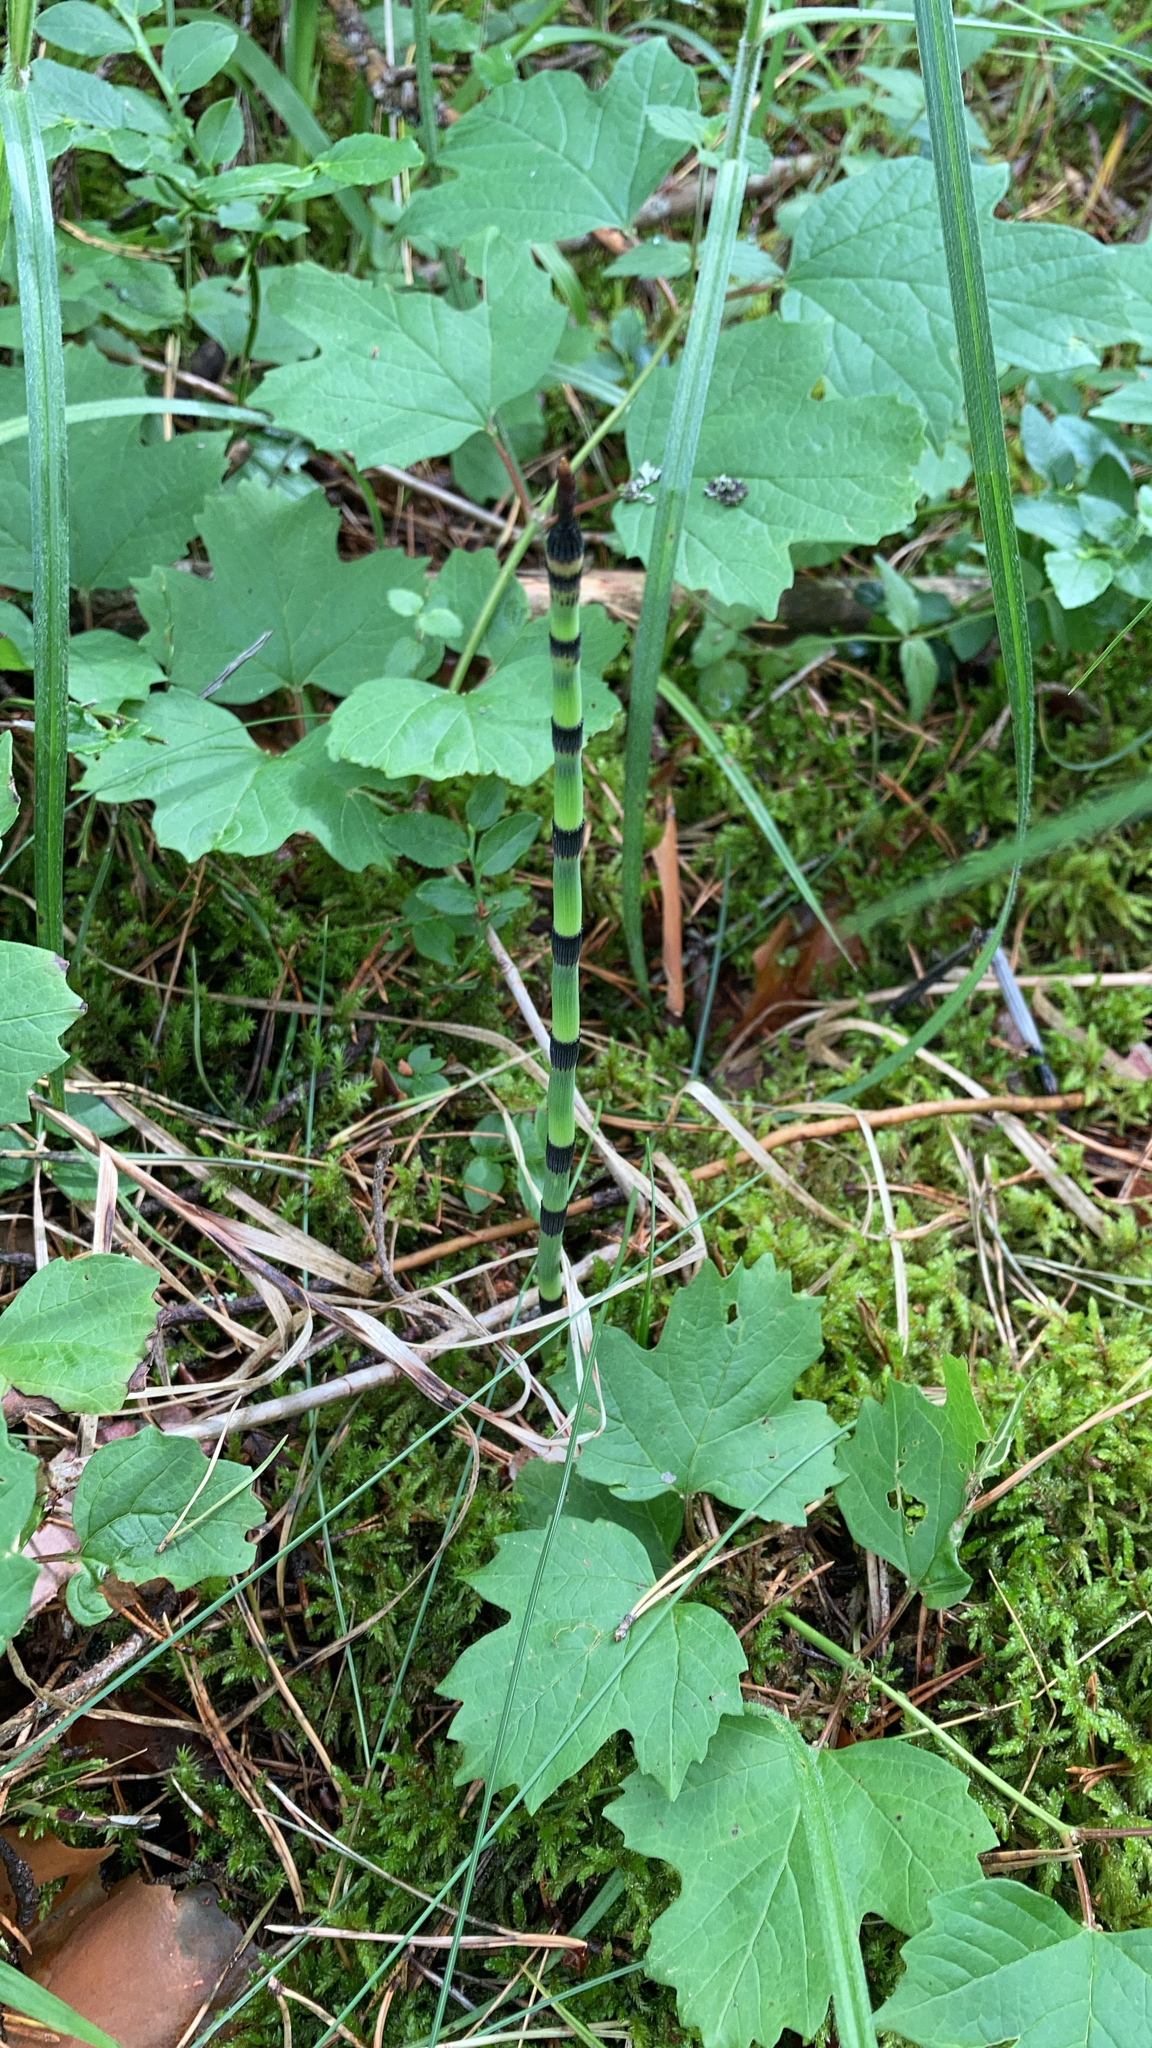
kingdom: Plantae
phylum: Tracheophyta
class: Polypodiopsida
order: Equisetales
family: Equisetaceae
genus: Equisetum
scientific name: Equisetum hyemale
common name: Rough horsetail
